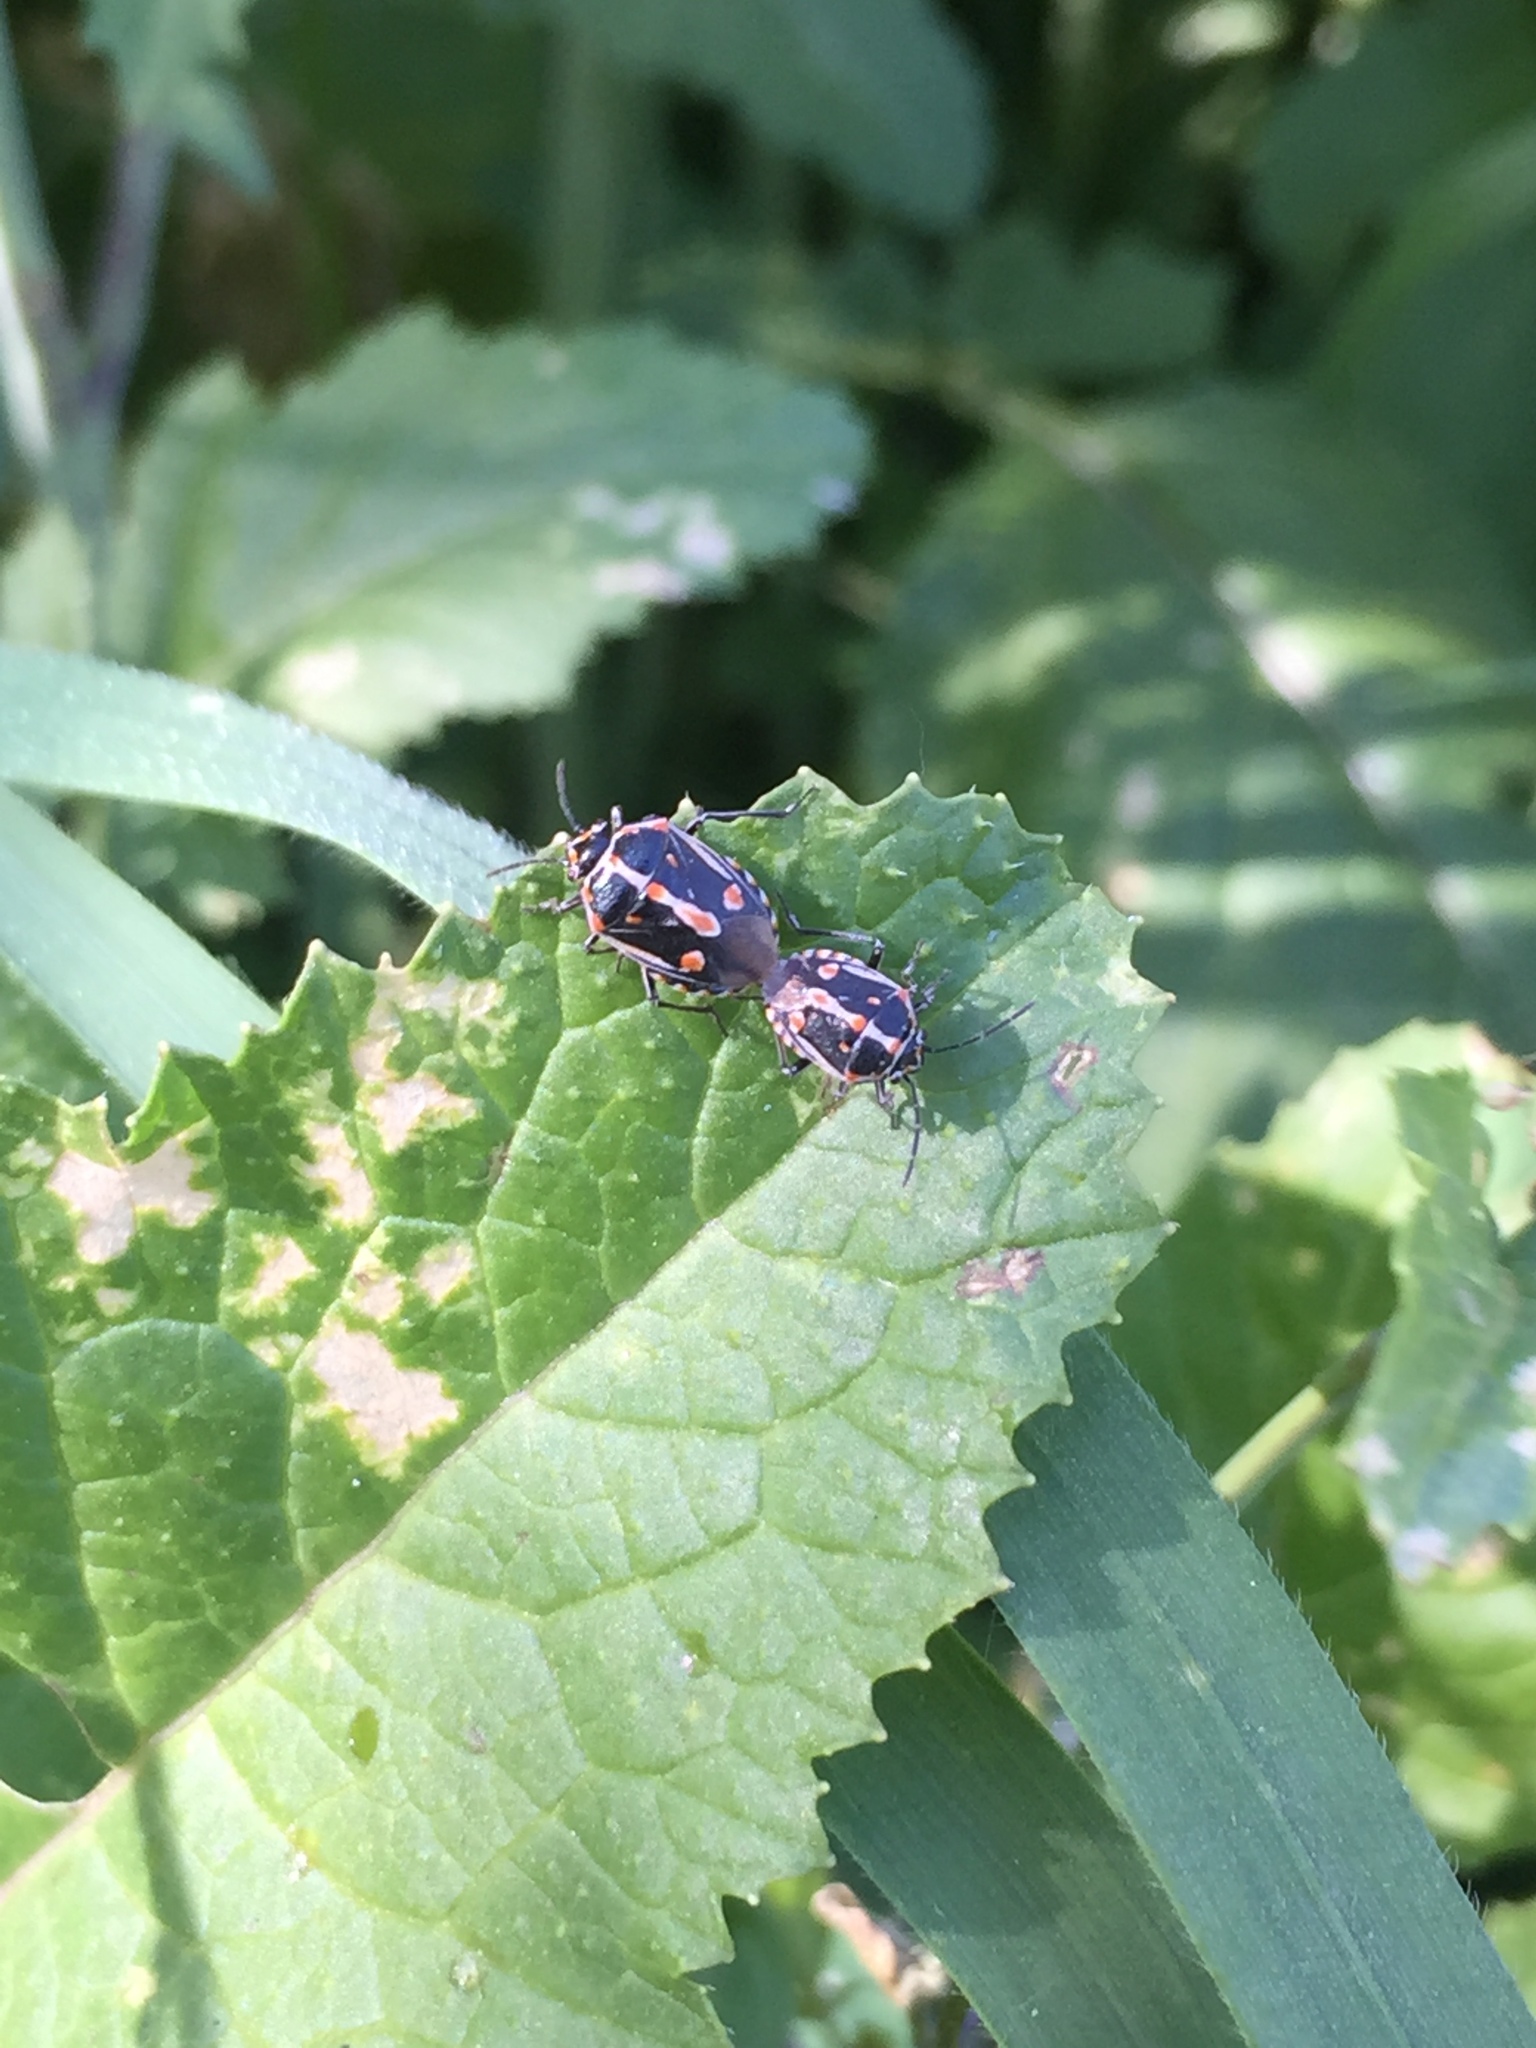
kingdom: Animalia
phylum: Arthropoda
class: Insecta
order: Hemiptera
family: Pentatomidae
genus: Bagrada
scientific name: Bagrada hilaris
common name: Bagrada bug
